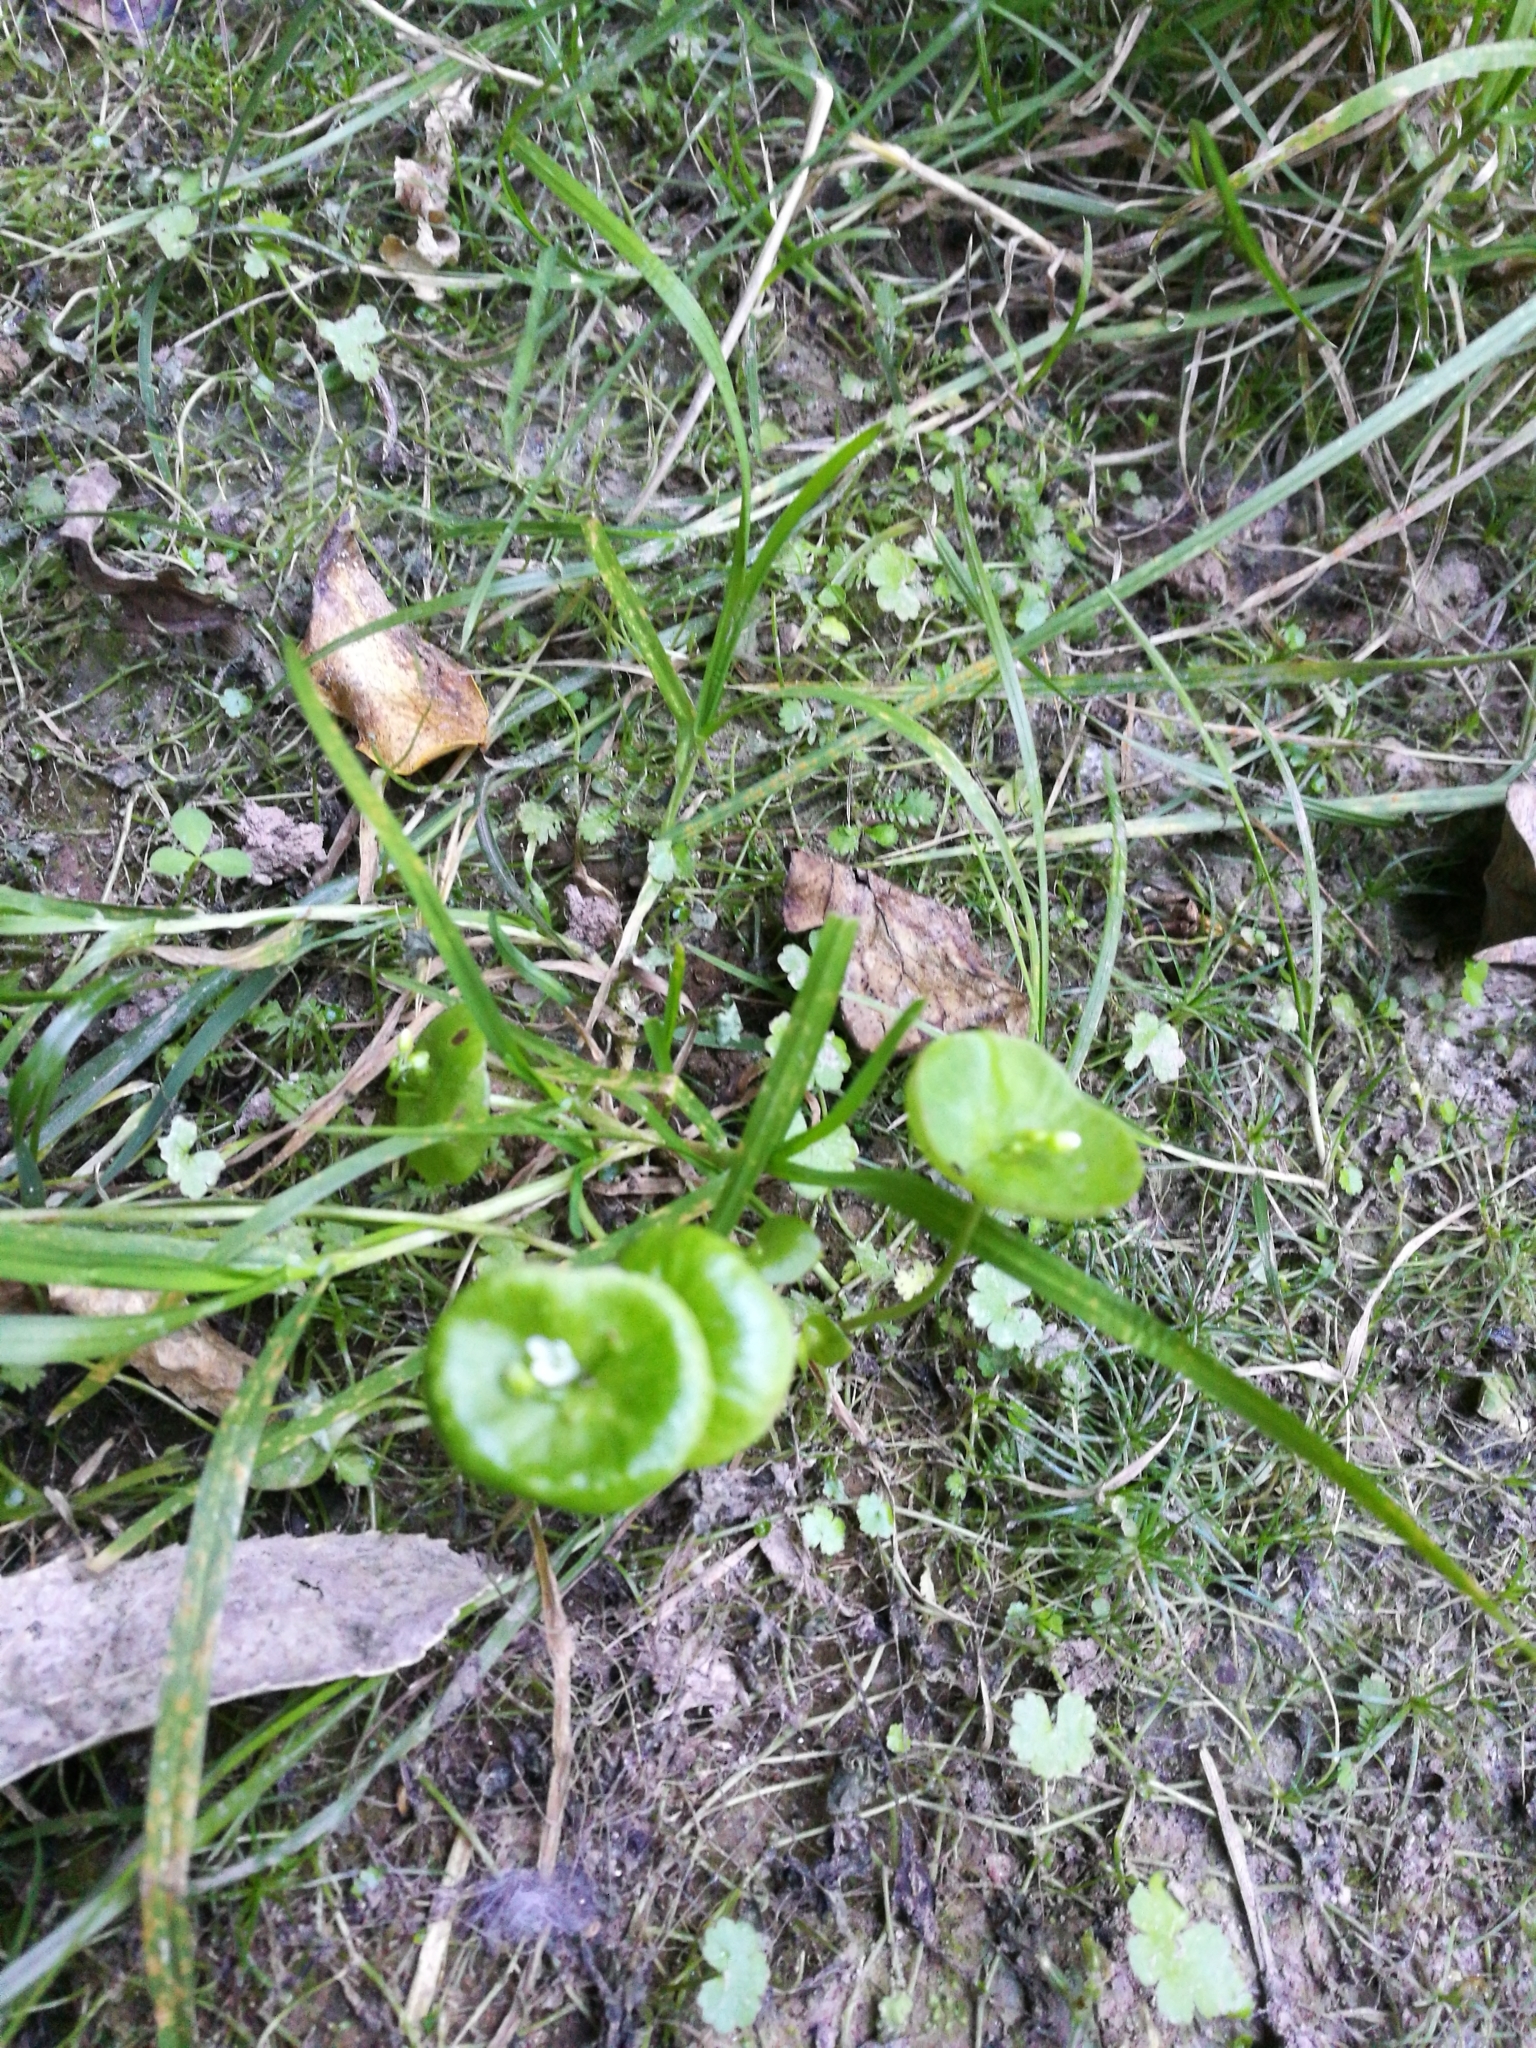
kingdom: Plantae
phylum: Tracheophyta
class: Magnoliopsida
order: Caryophyllales
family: Montiaceae
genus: Claytonia
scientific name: Claytonia perfoliata
